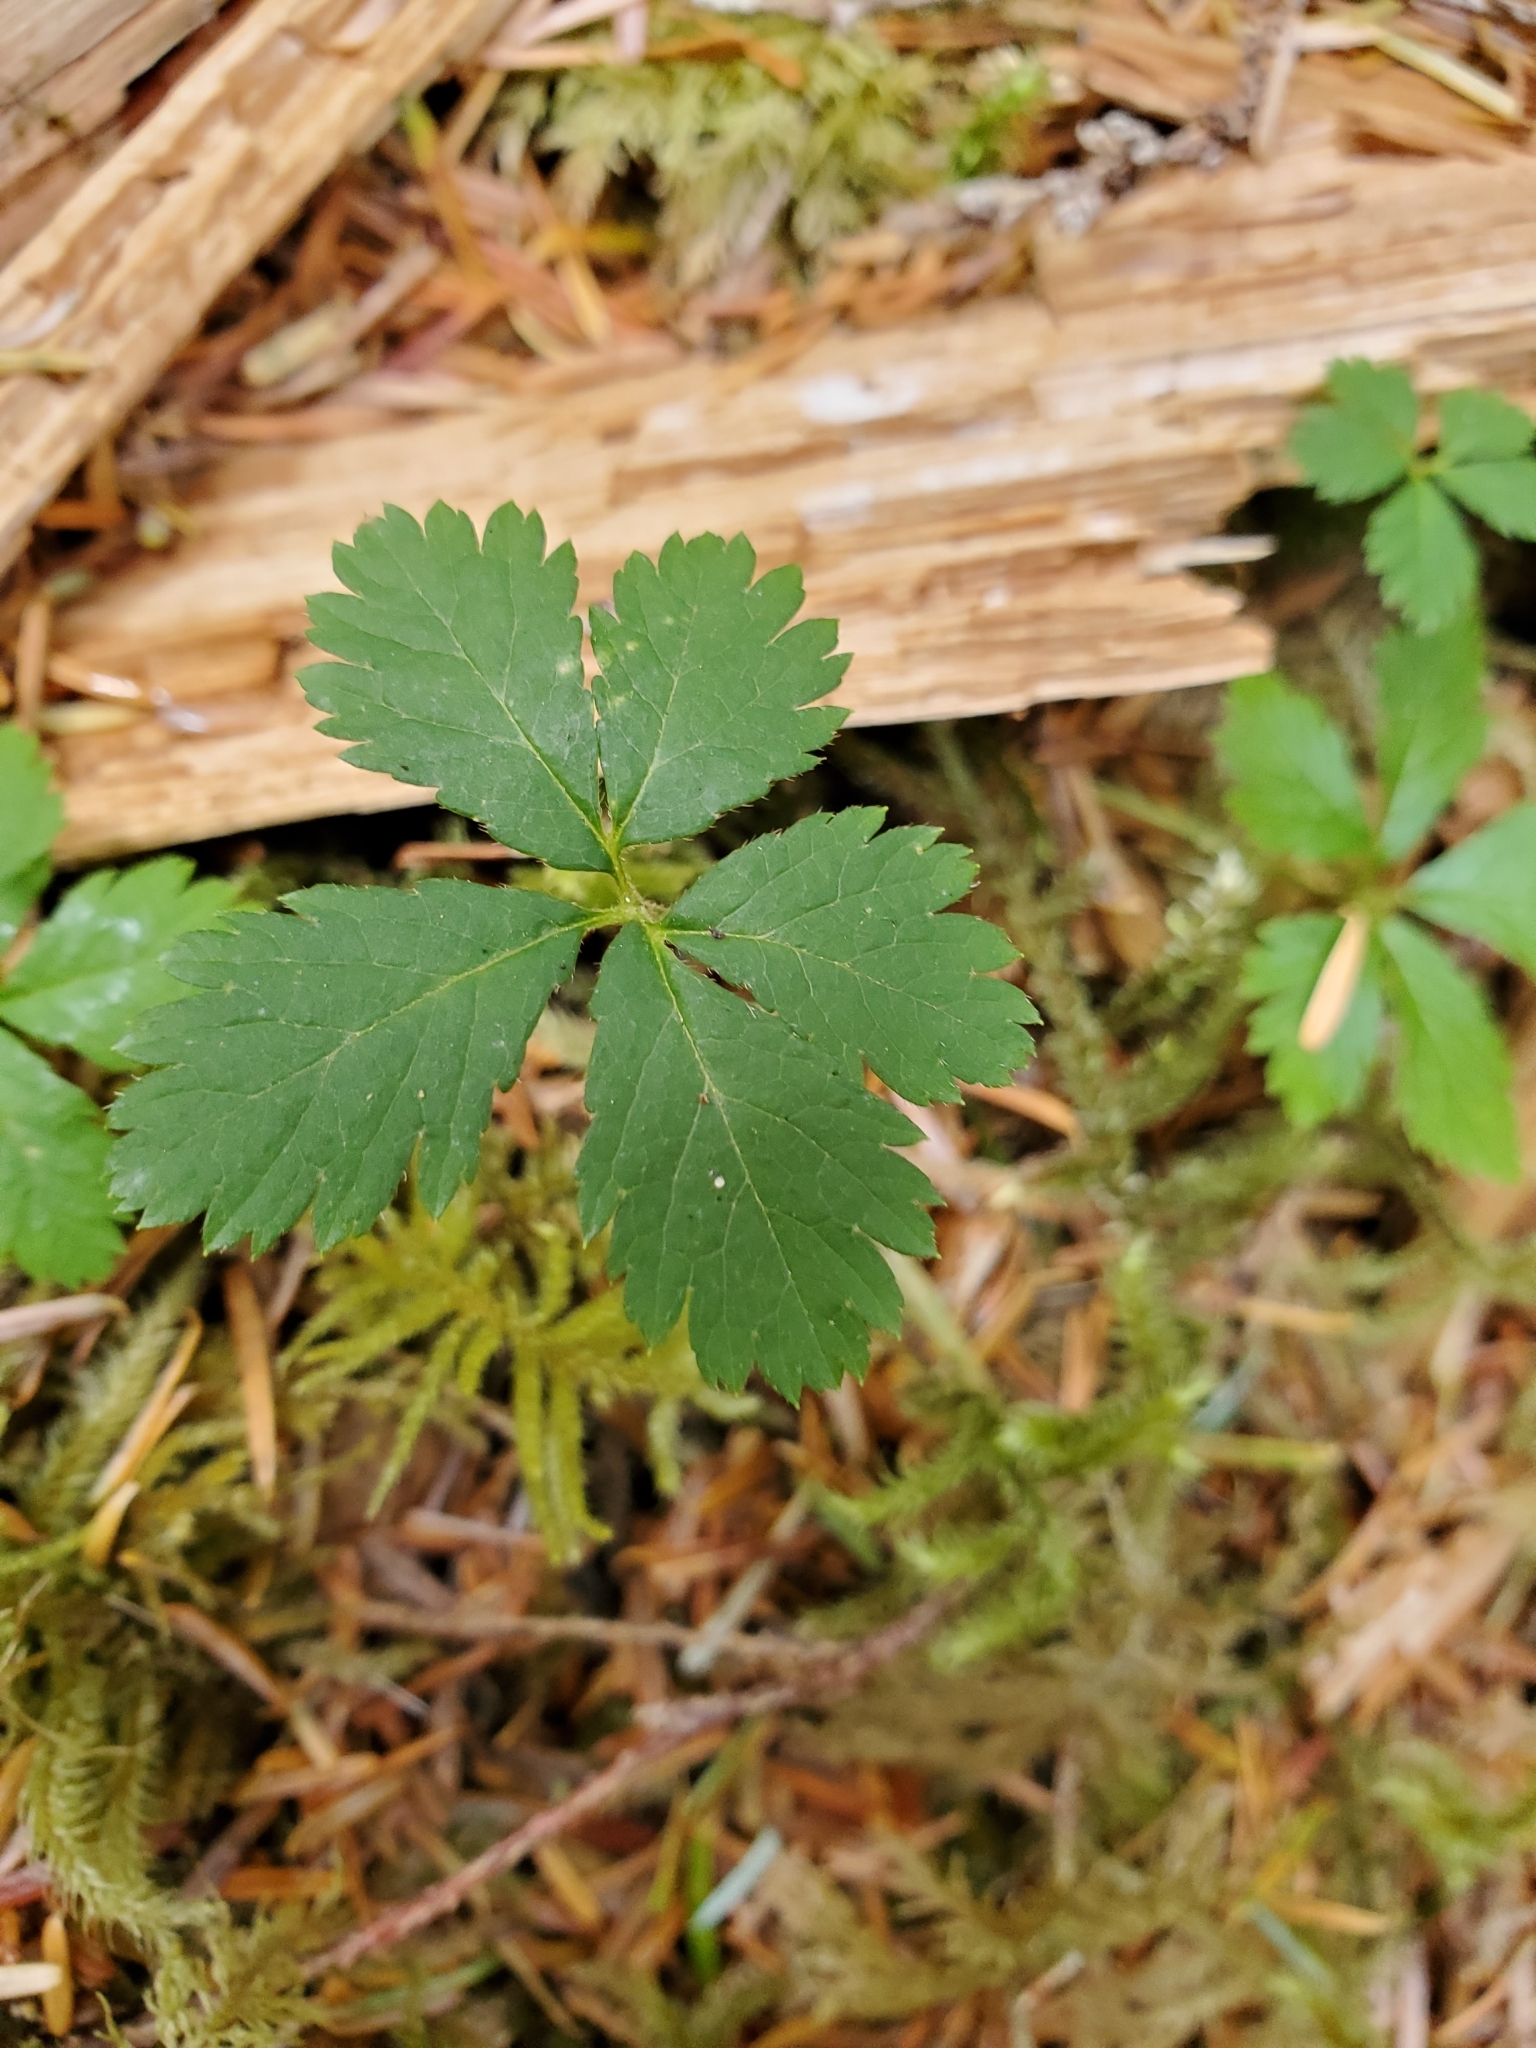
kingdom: Plantae
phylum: Tracheophyta
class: Magnoliopsida
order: Rosales
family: Rosaceae
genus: Rubus
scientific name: Rubus pedatus
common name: Creeping raspberry
